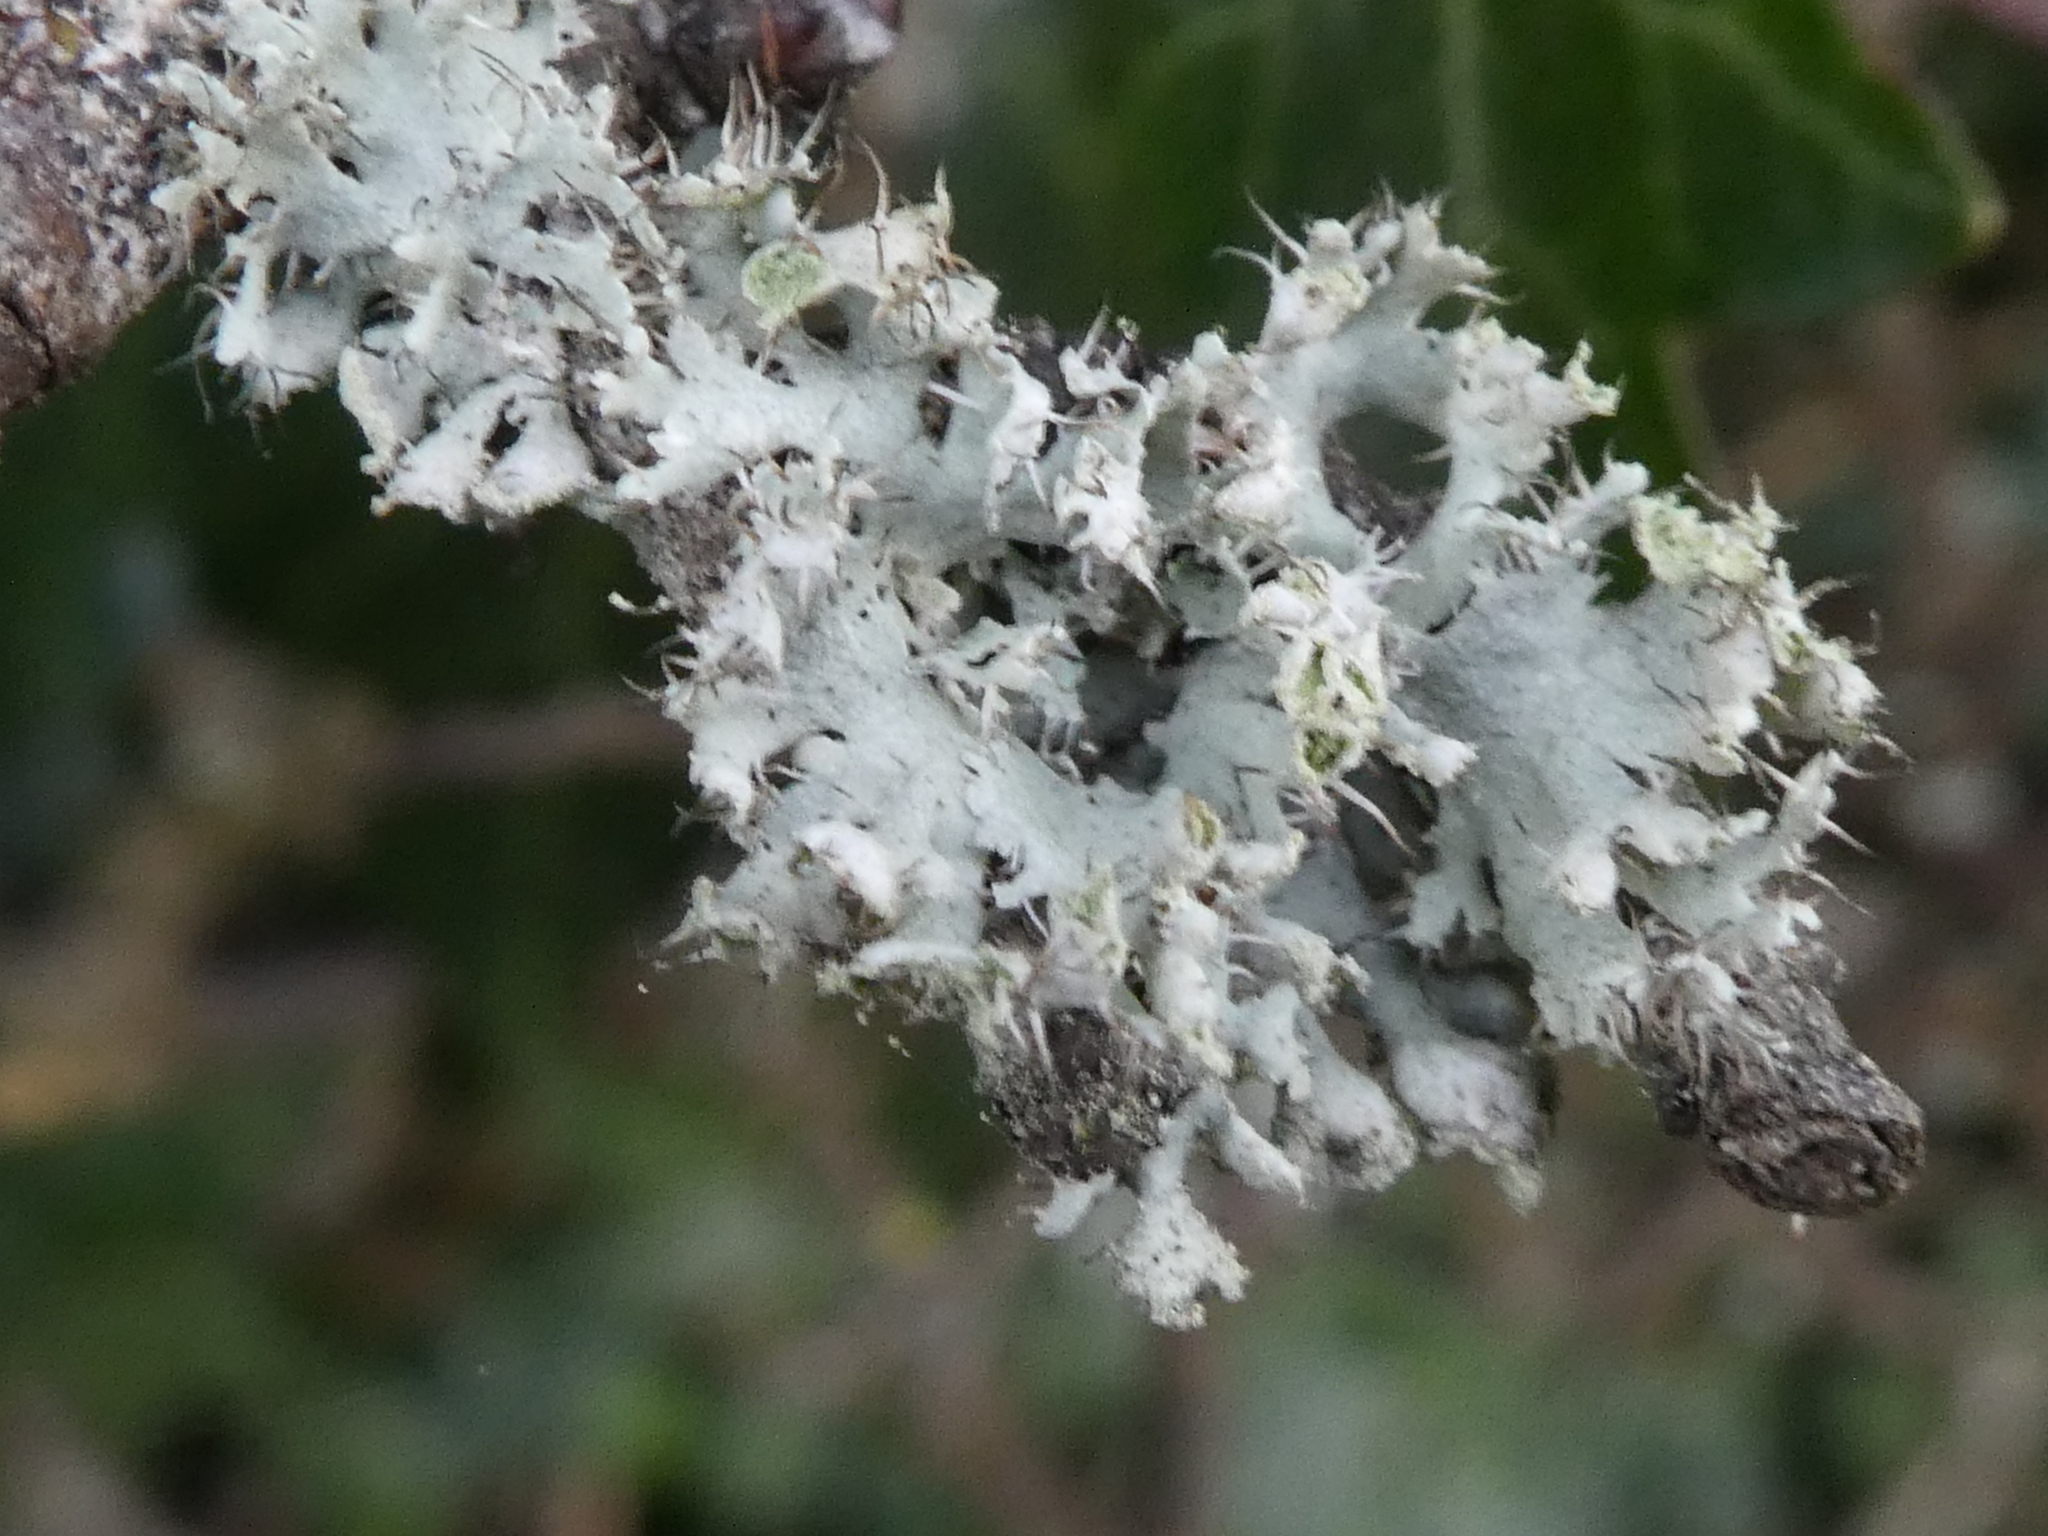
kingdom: Fungi
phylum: Ascomycota
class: Lecanoromycetes
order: Caliciales
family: Physciaceae
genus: Physcia
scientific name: Physcia adscendens
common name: Hooded rosette lichen
